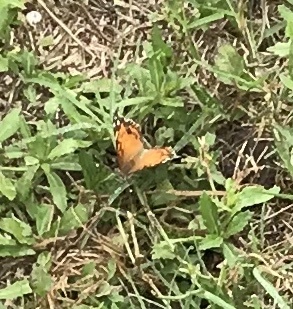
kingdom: Animalia
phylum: Arthropoda
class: Insecta
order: Lepidoptera
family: Nymphalidae
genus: Vanessa
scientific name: Vanessa virginiensis
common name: American lady
